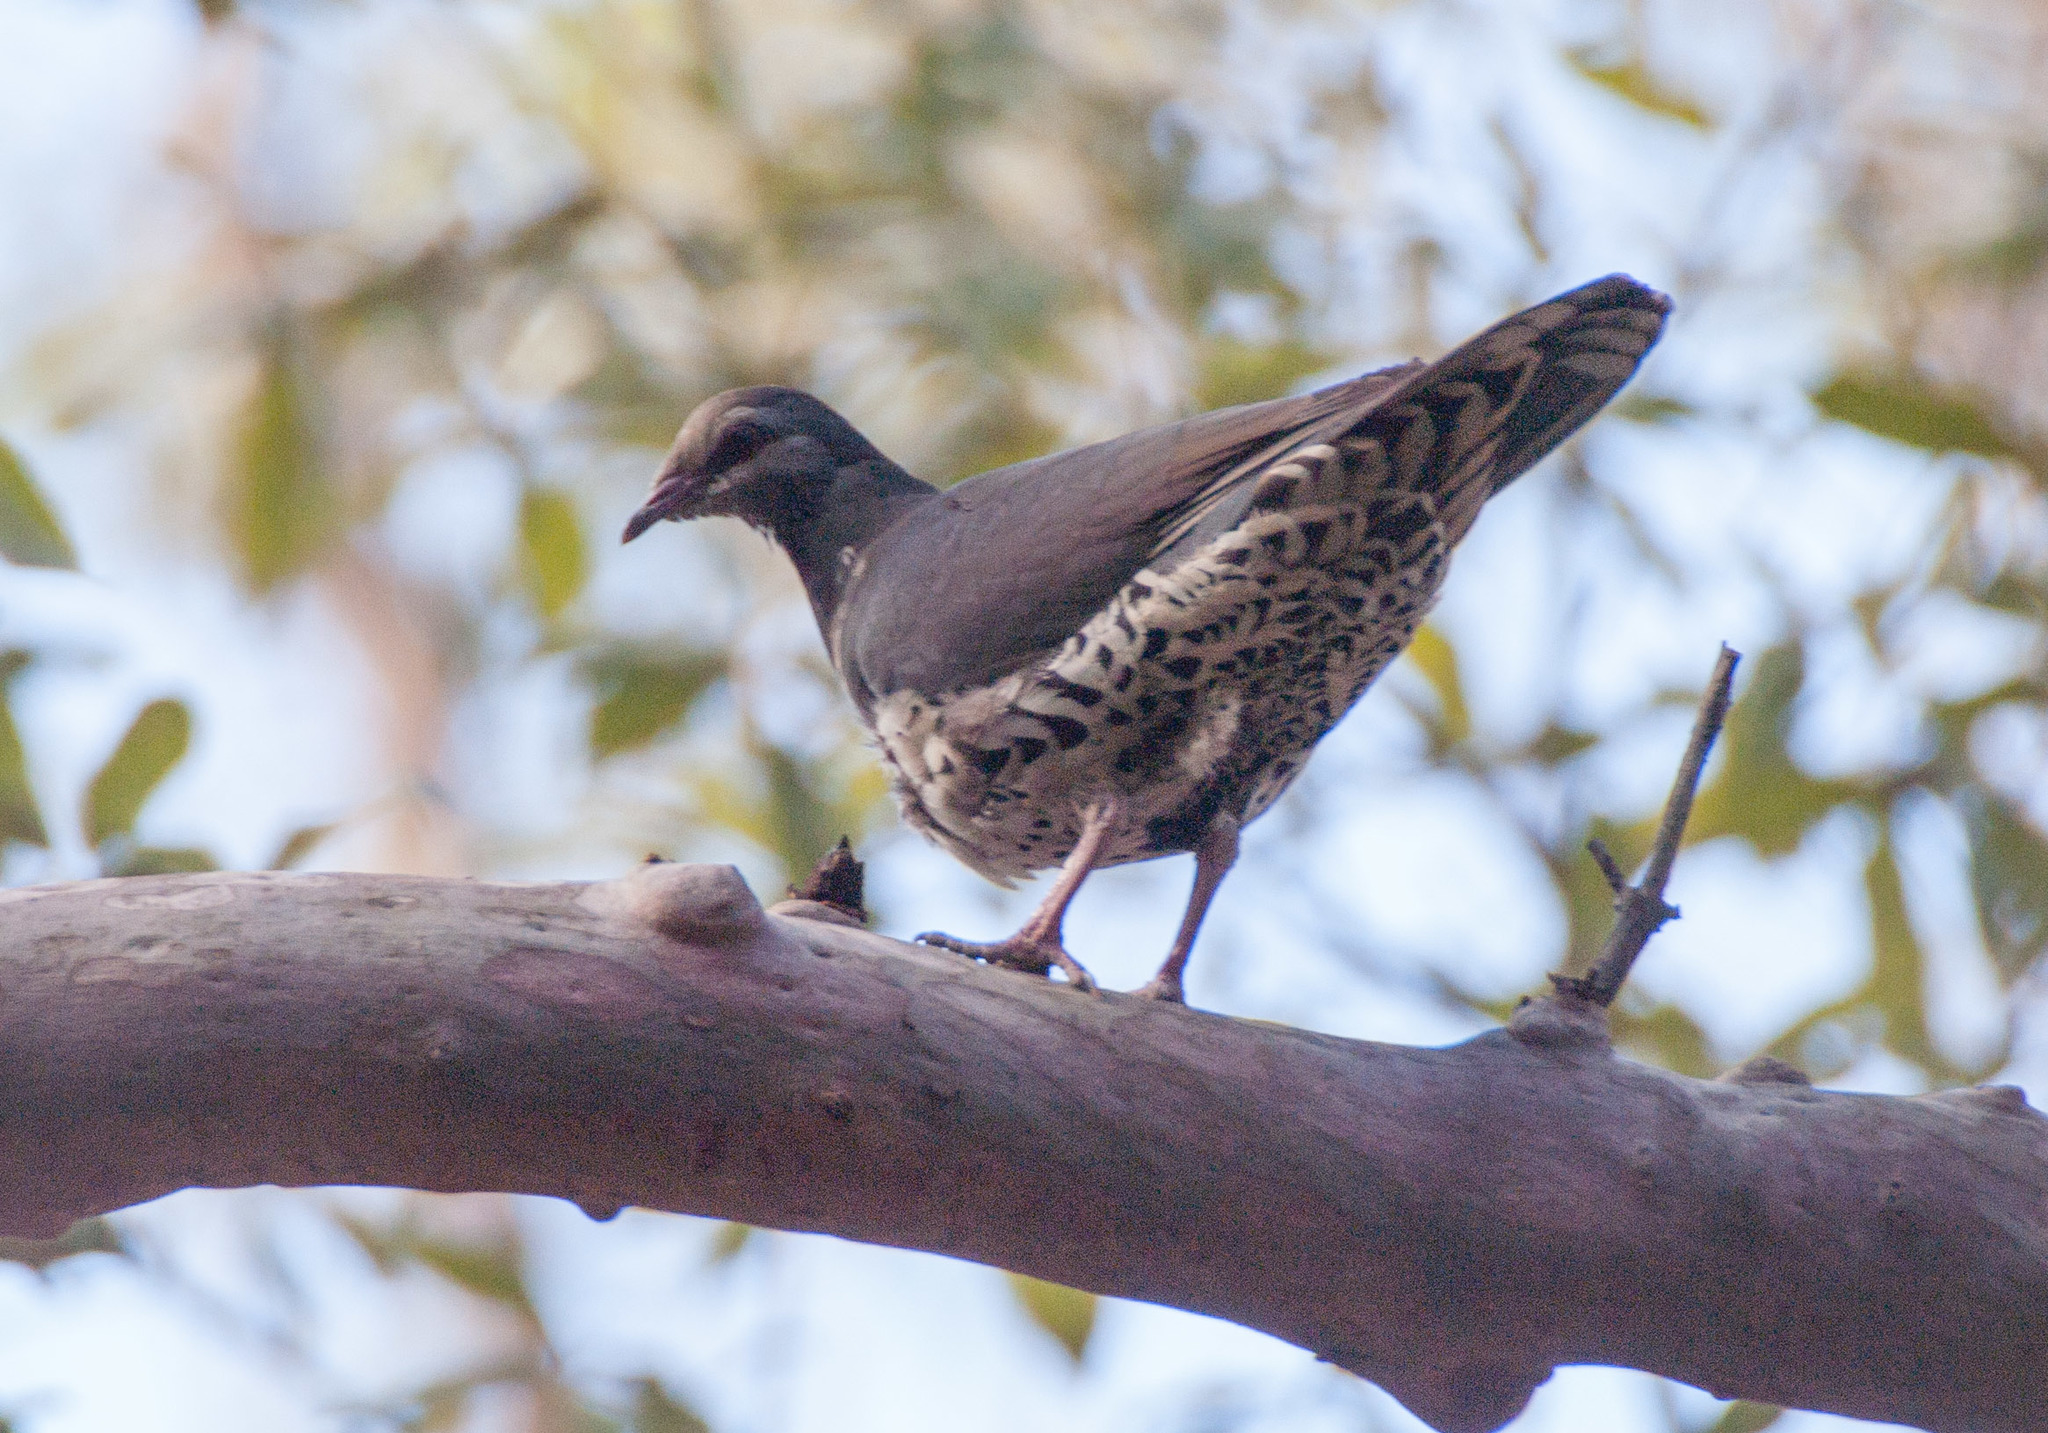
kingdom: Animalia
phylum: Chordata
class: Aves
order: Columbiformes
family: Columbidae
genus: Leucosarcia
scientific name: Leucosarcia melanoleuca
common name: Wonga pigeon
